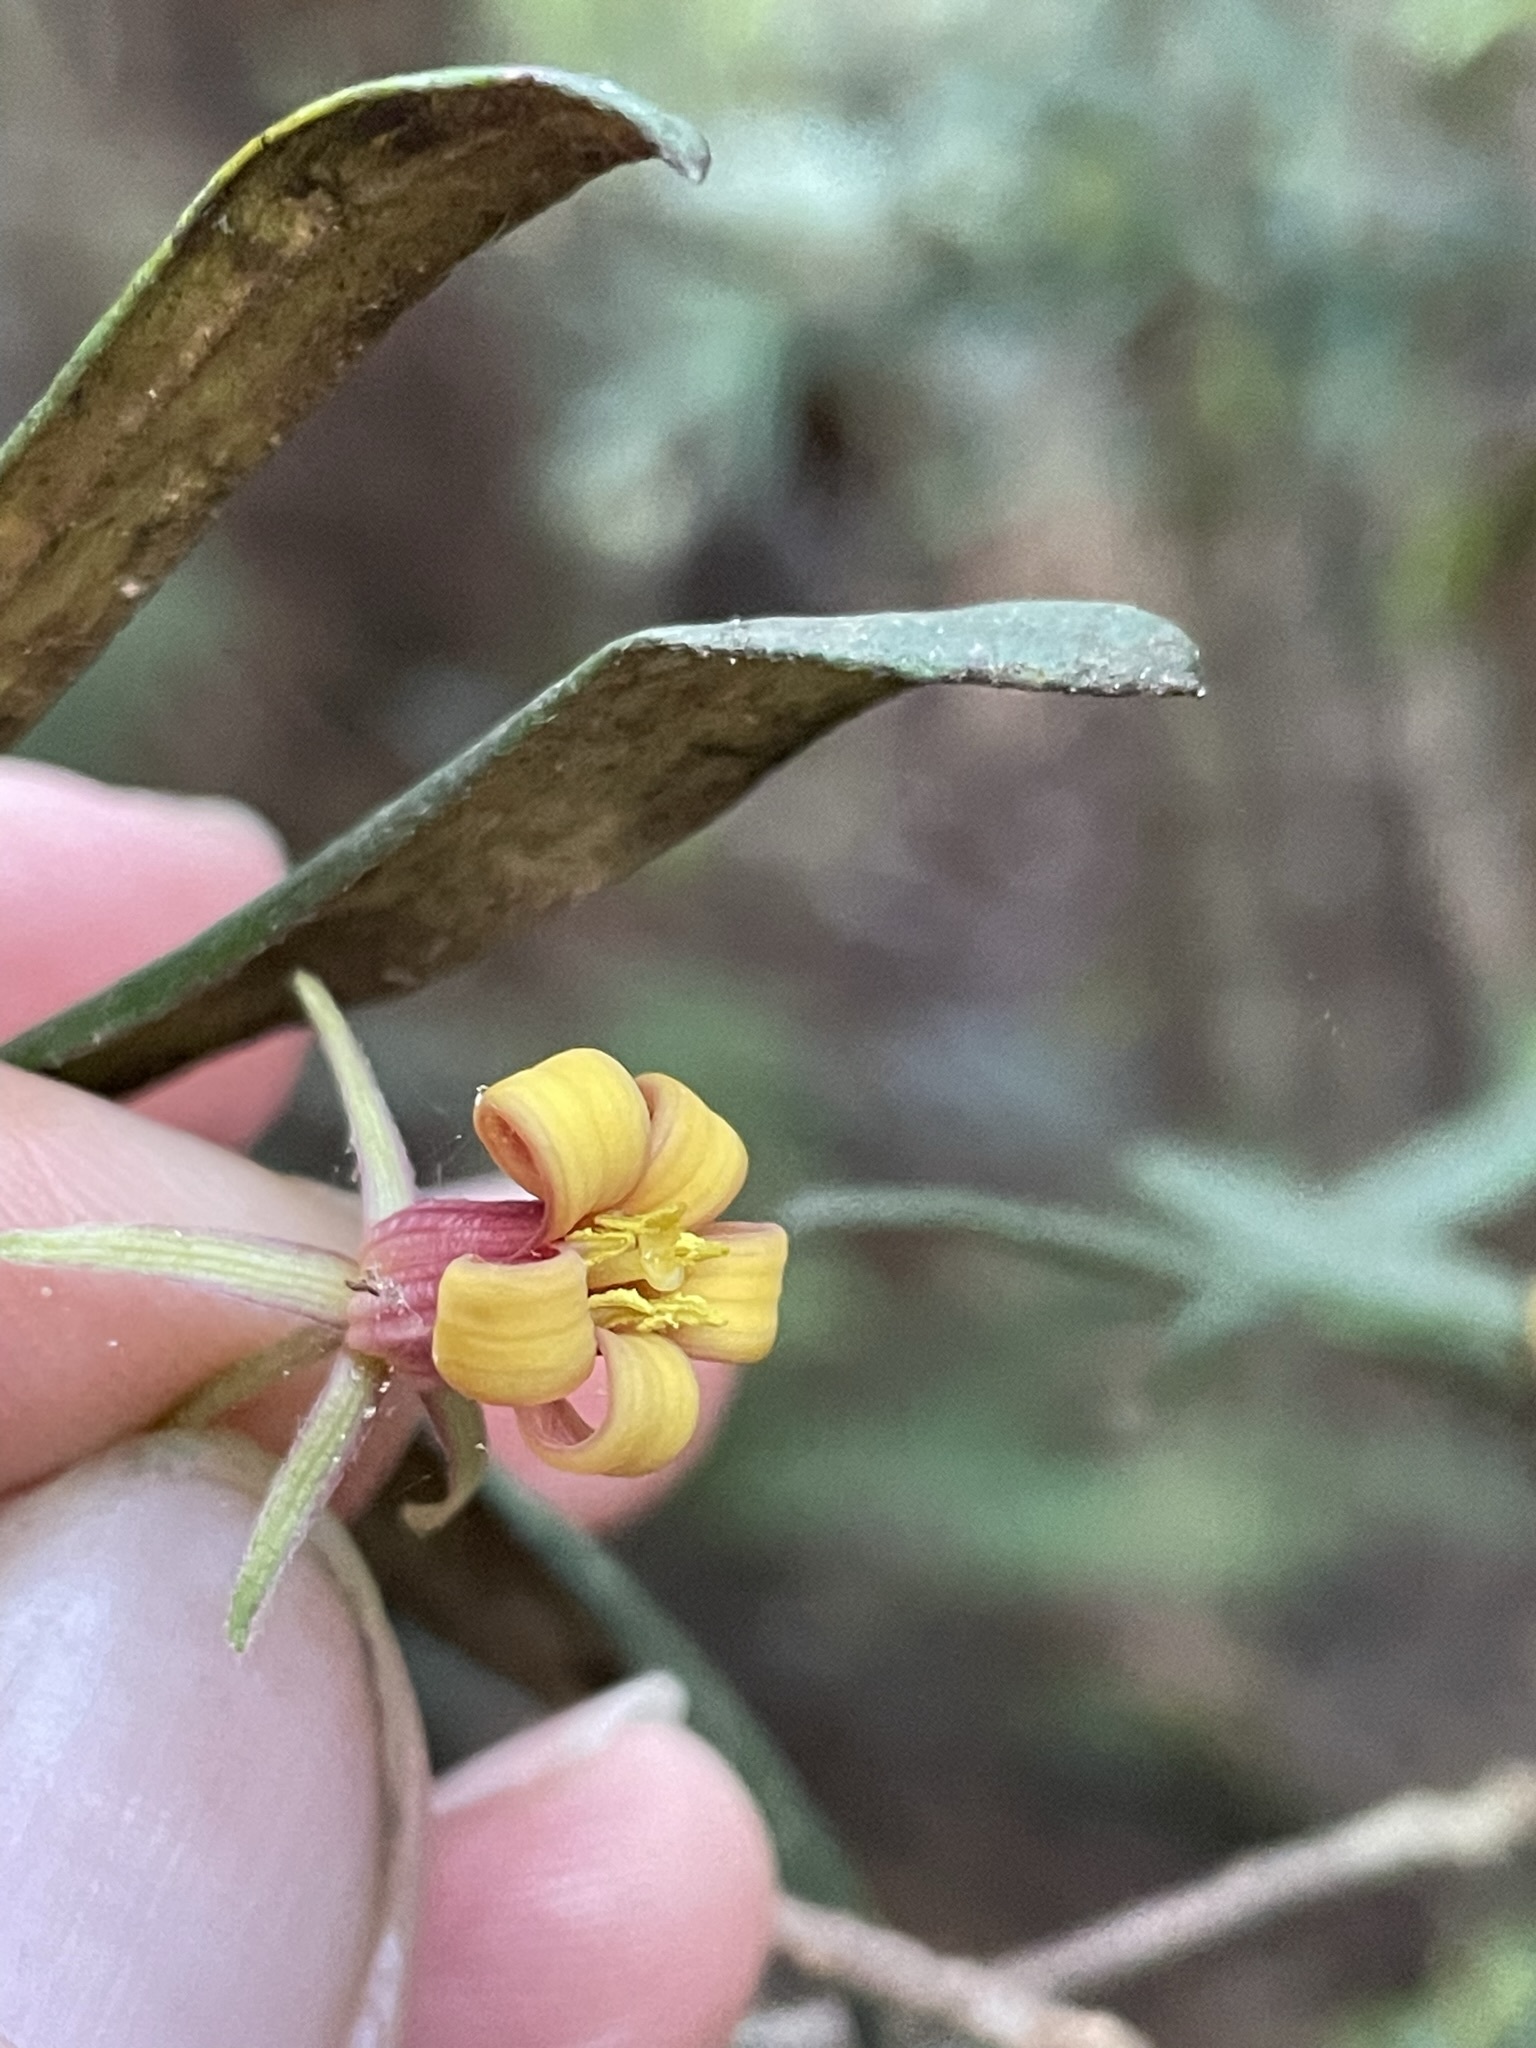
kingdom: Plantae
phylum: Tracheophyta
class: Magnoliopsida
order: Apiales
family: Pittosporaceae
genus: Pittosporum
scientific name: Pittosporum bicolor
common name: Tallowwood
